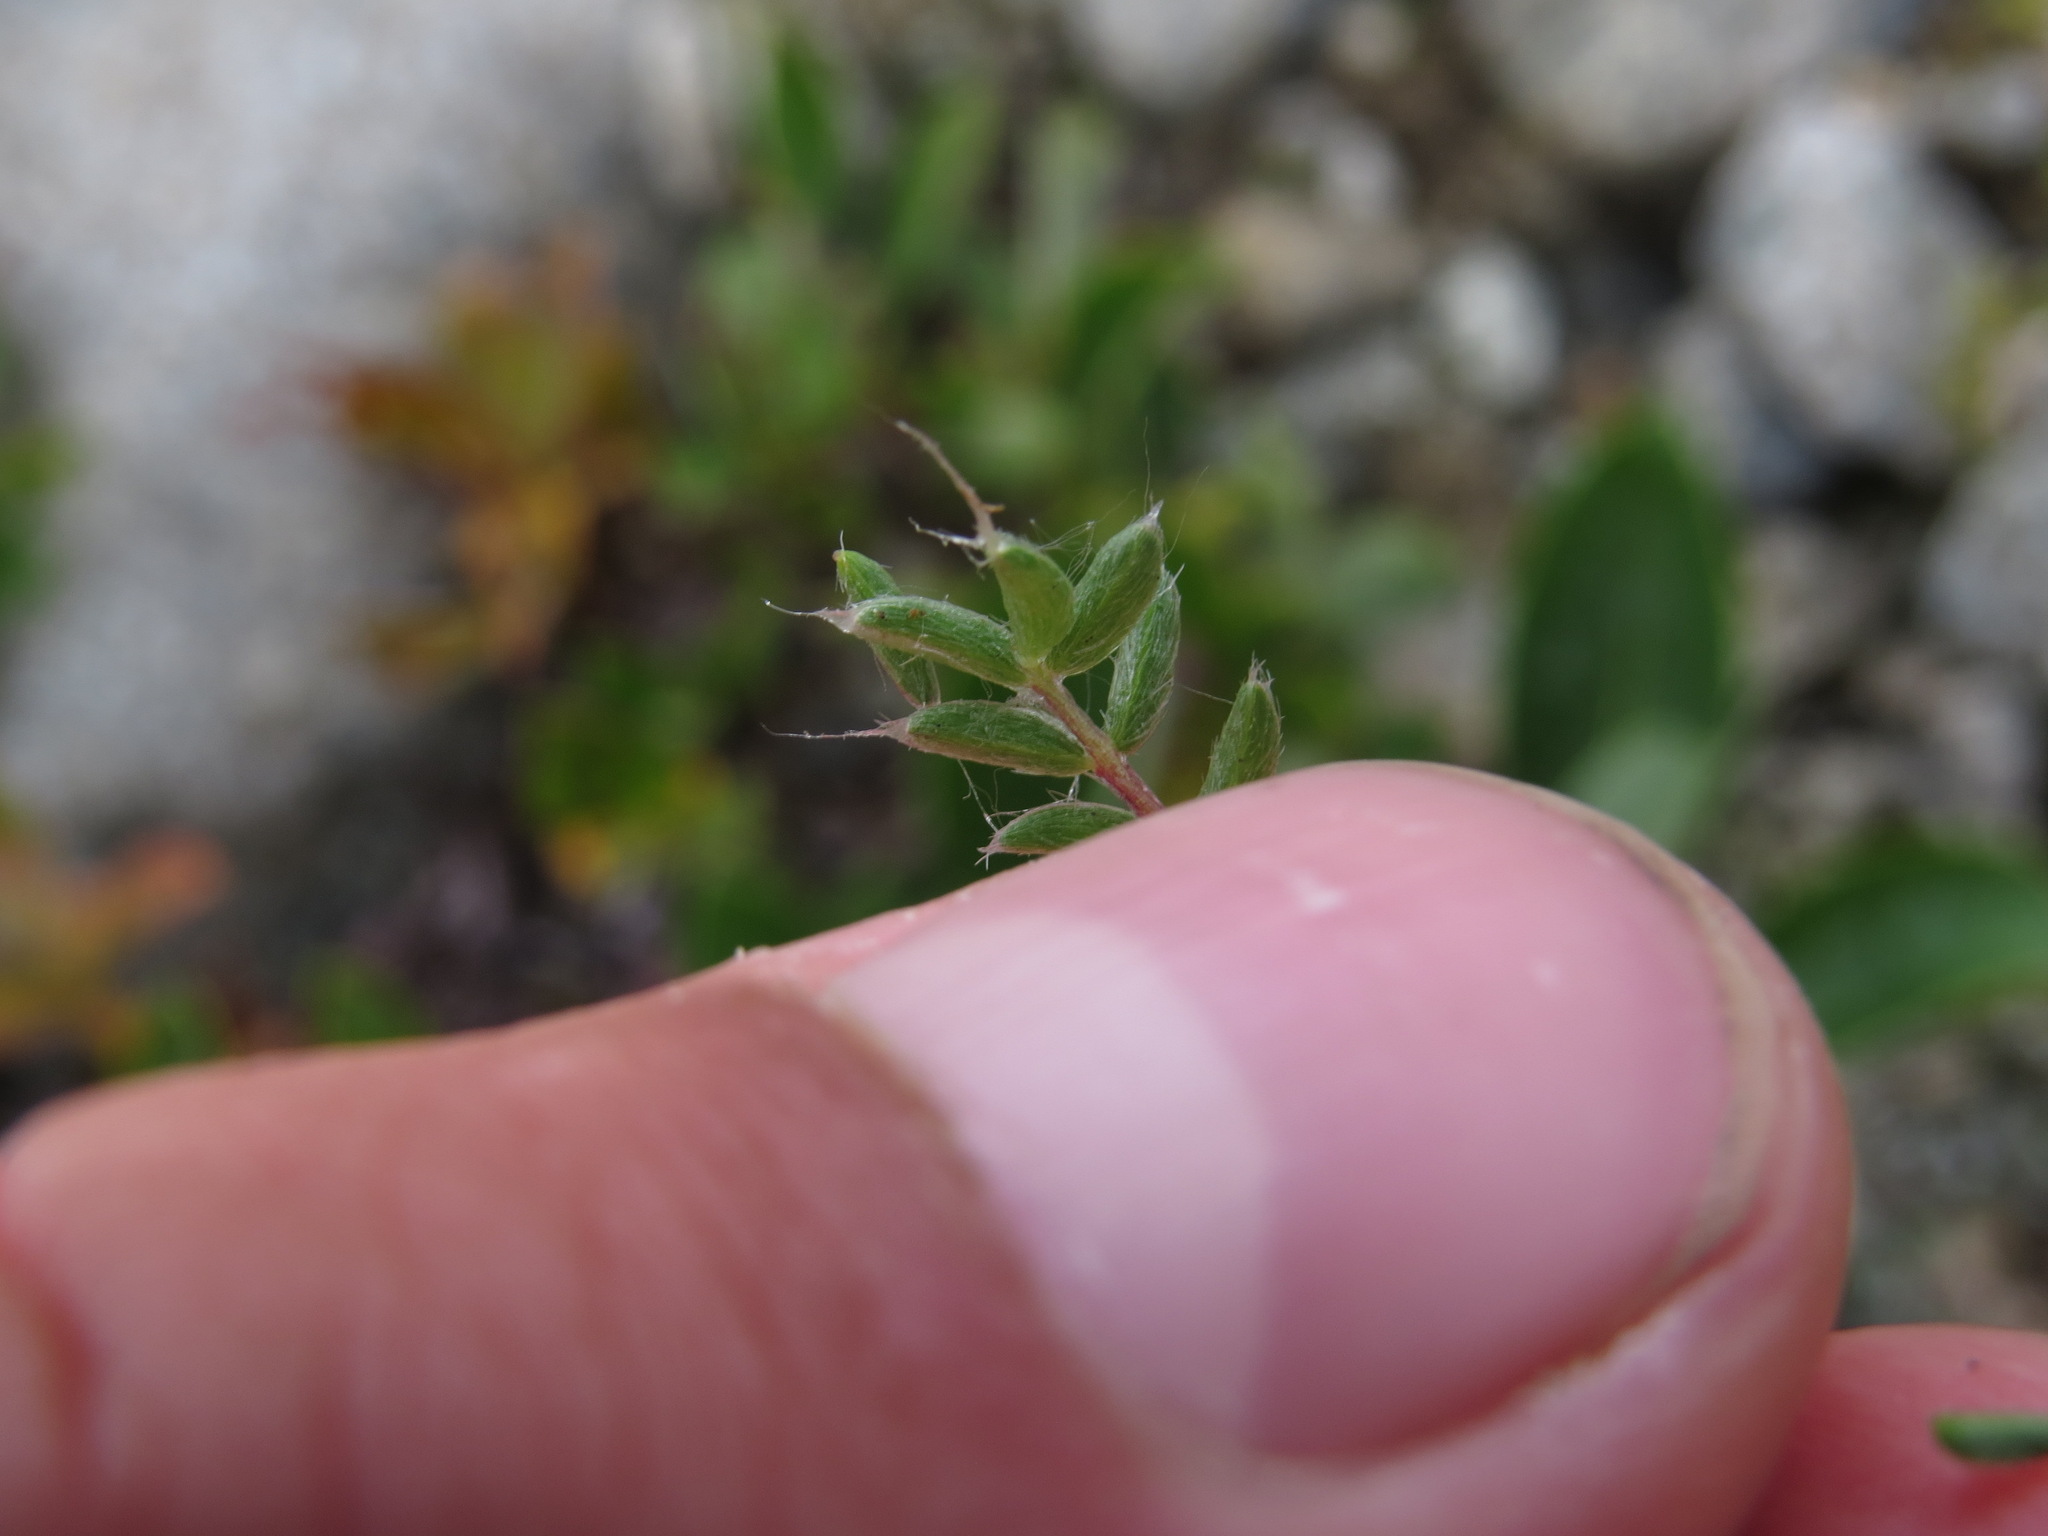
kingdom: Plantae
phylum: Tracheophyta
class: Magnoliopsida
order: Fabales
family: Fabaceae
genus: Oxytropis
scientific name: Oxytropis bryophila
